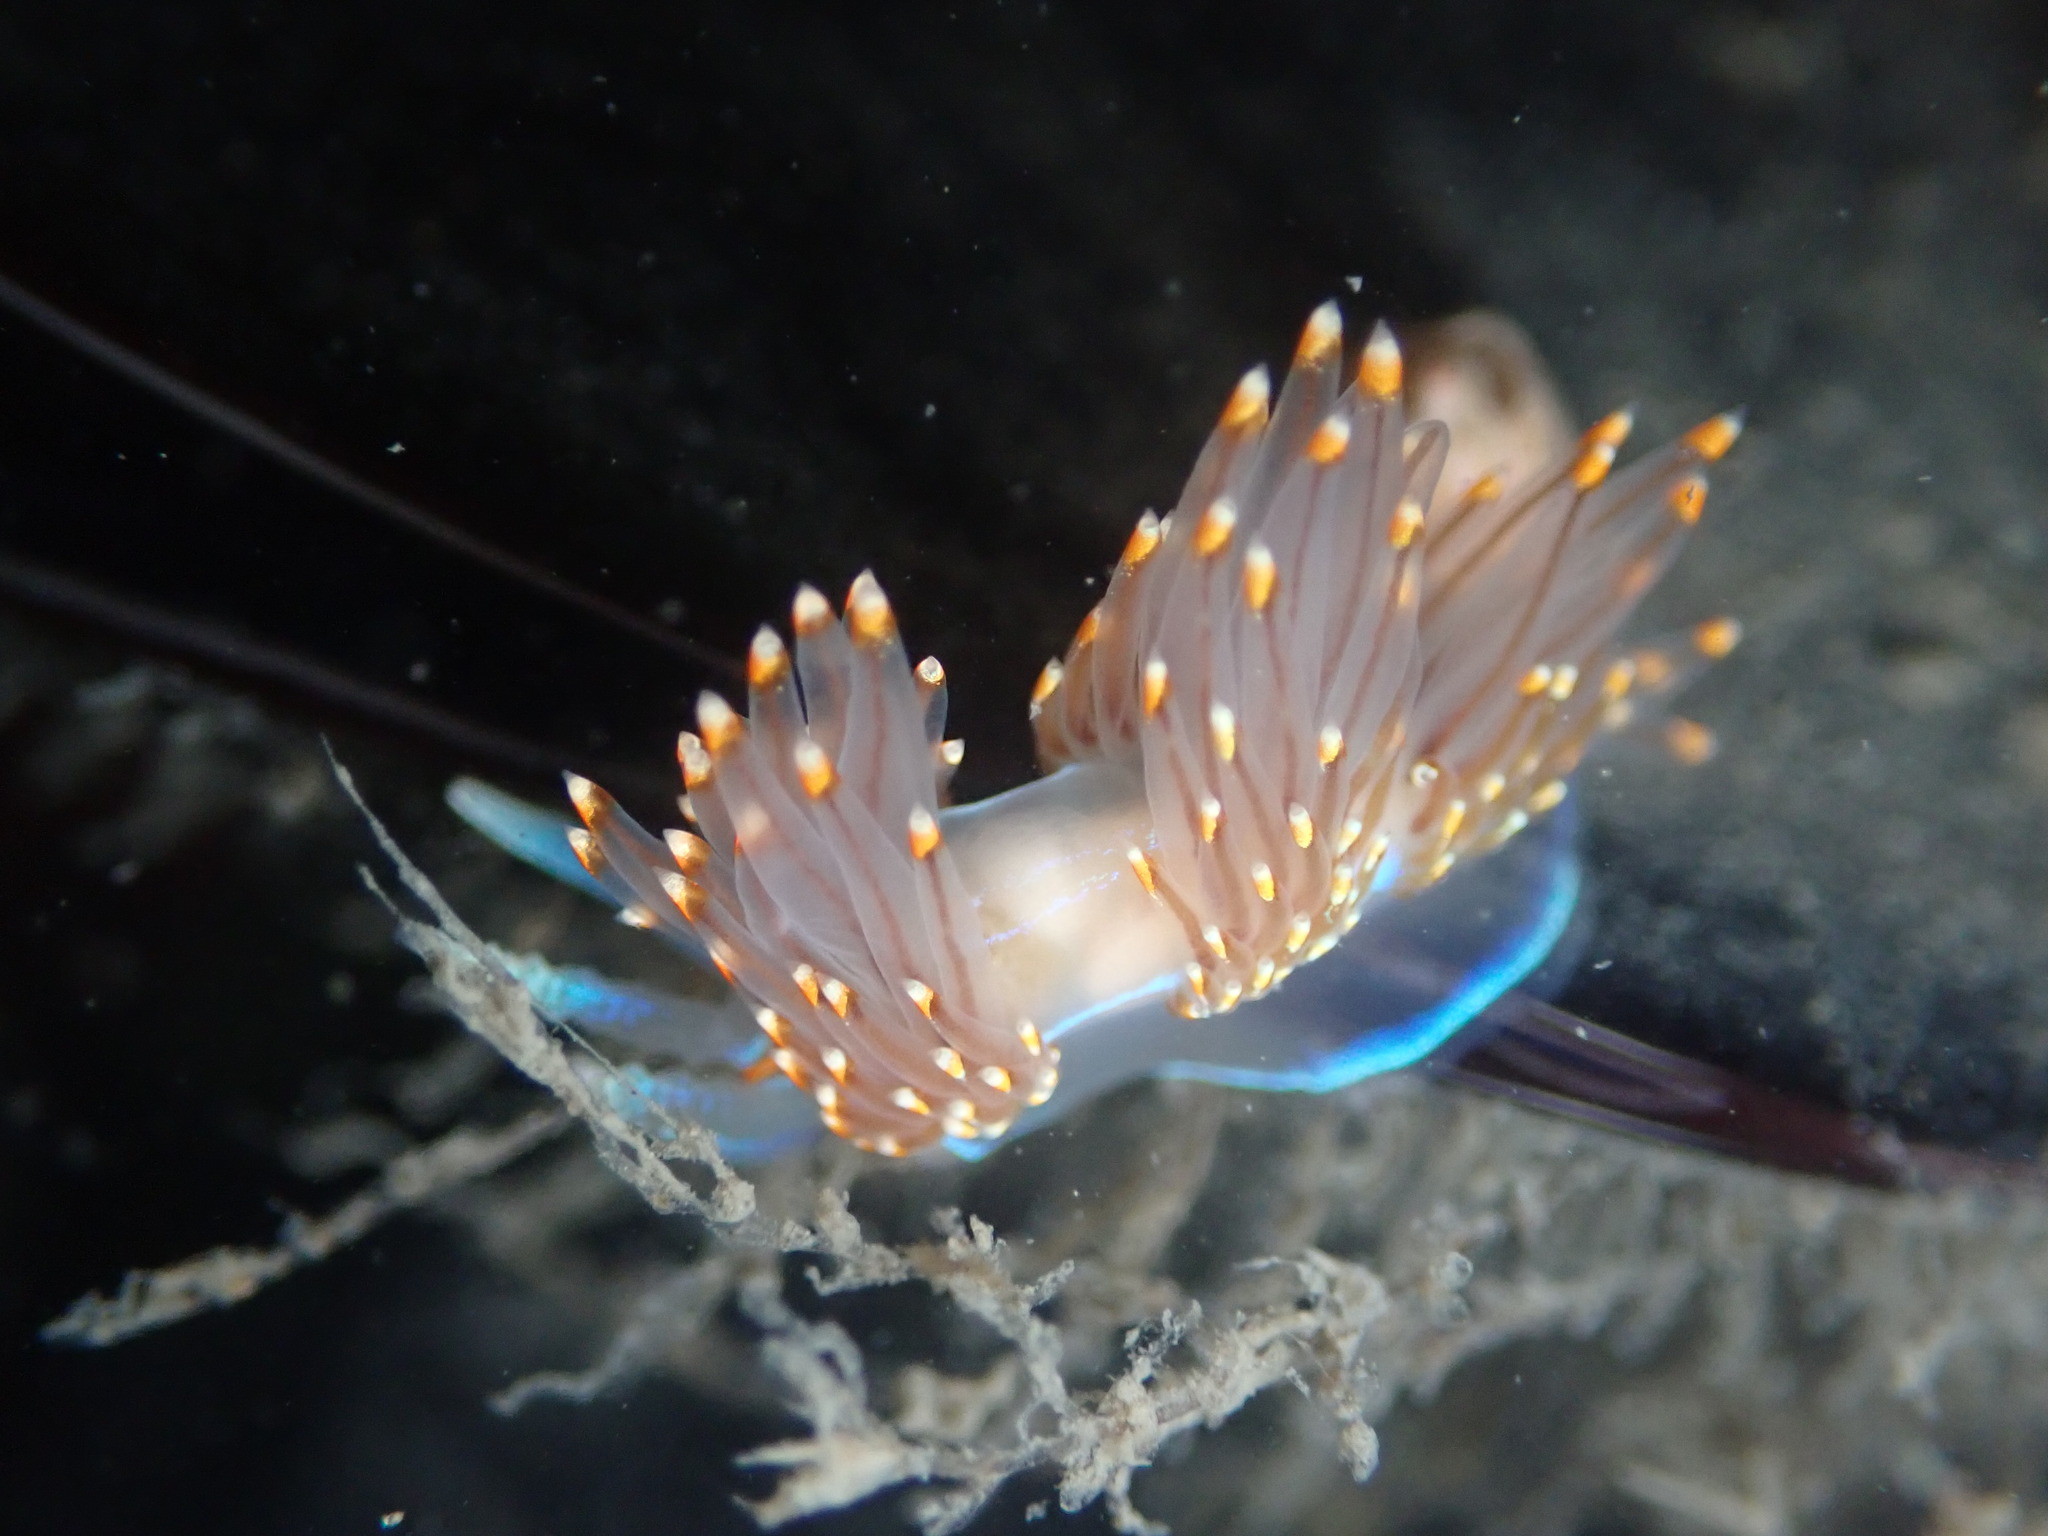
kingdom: Animalia
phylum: Mollusca
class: Gastropoda
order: Nudibranchia
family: Myrrhinidae
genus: Hermissenda
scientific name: Hermissenda opalescens
